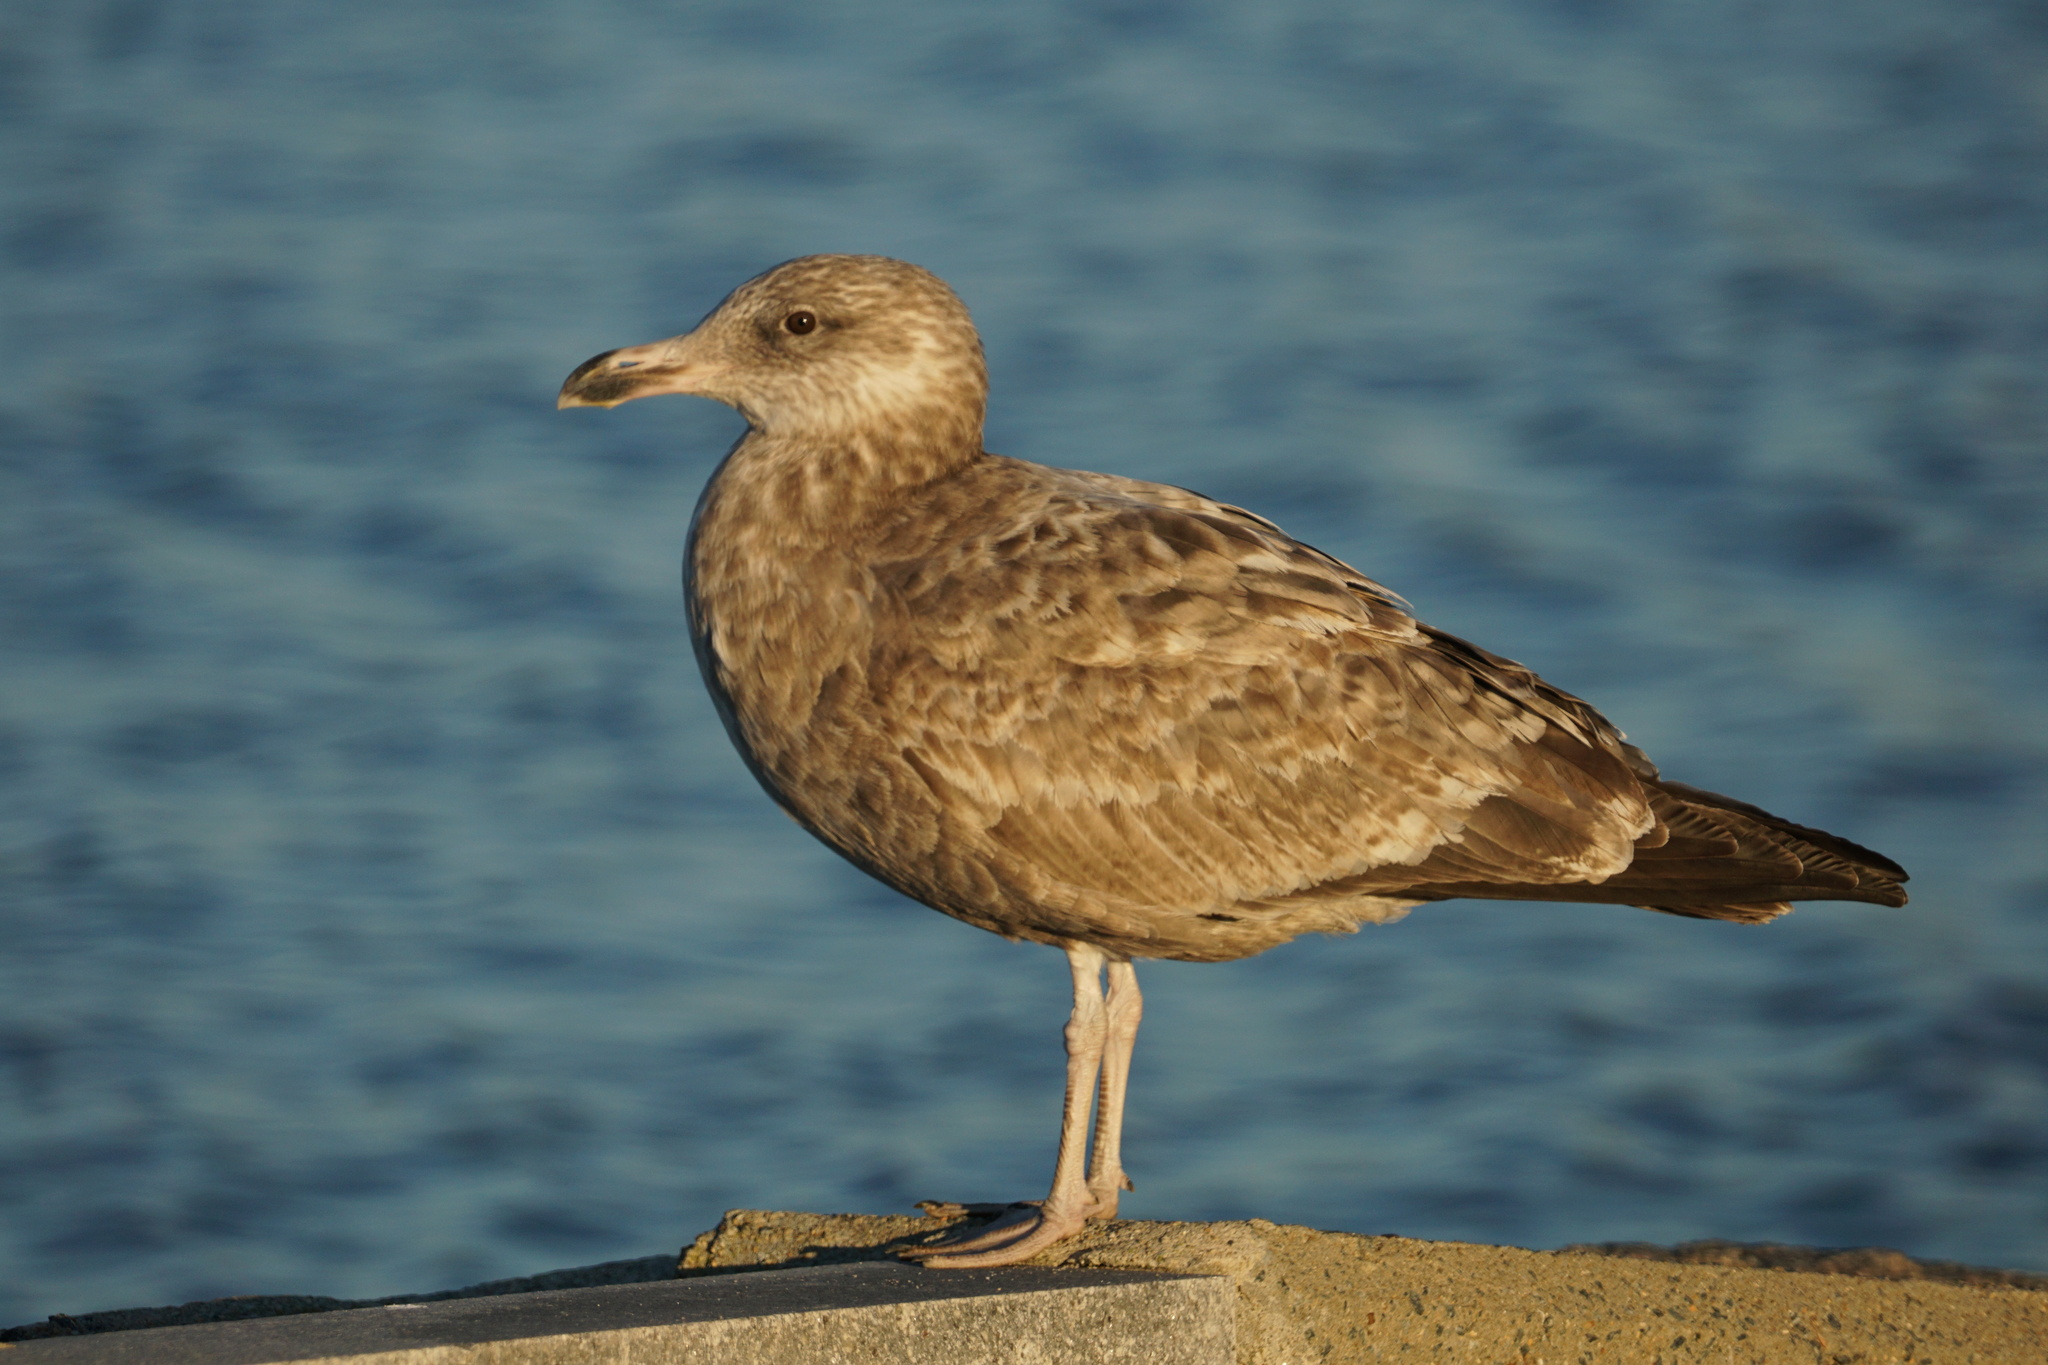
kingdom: Animalia
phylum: Chordata
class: Aves
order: Charadriiformes
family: Laridae
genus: Larus
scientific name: Larus argentatus
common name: Herring gull
